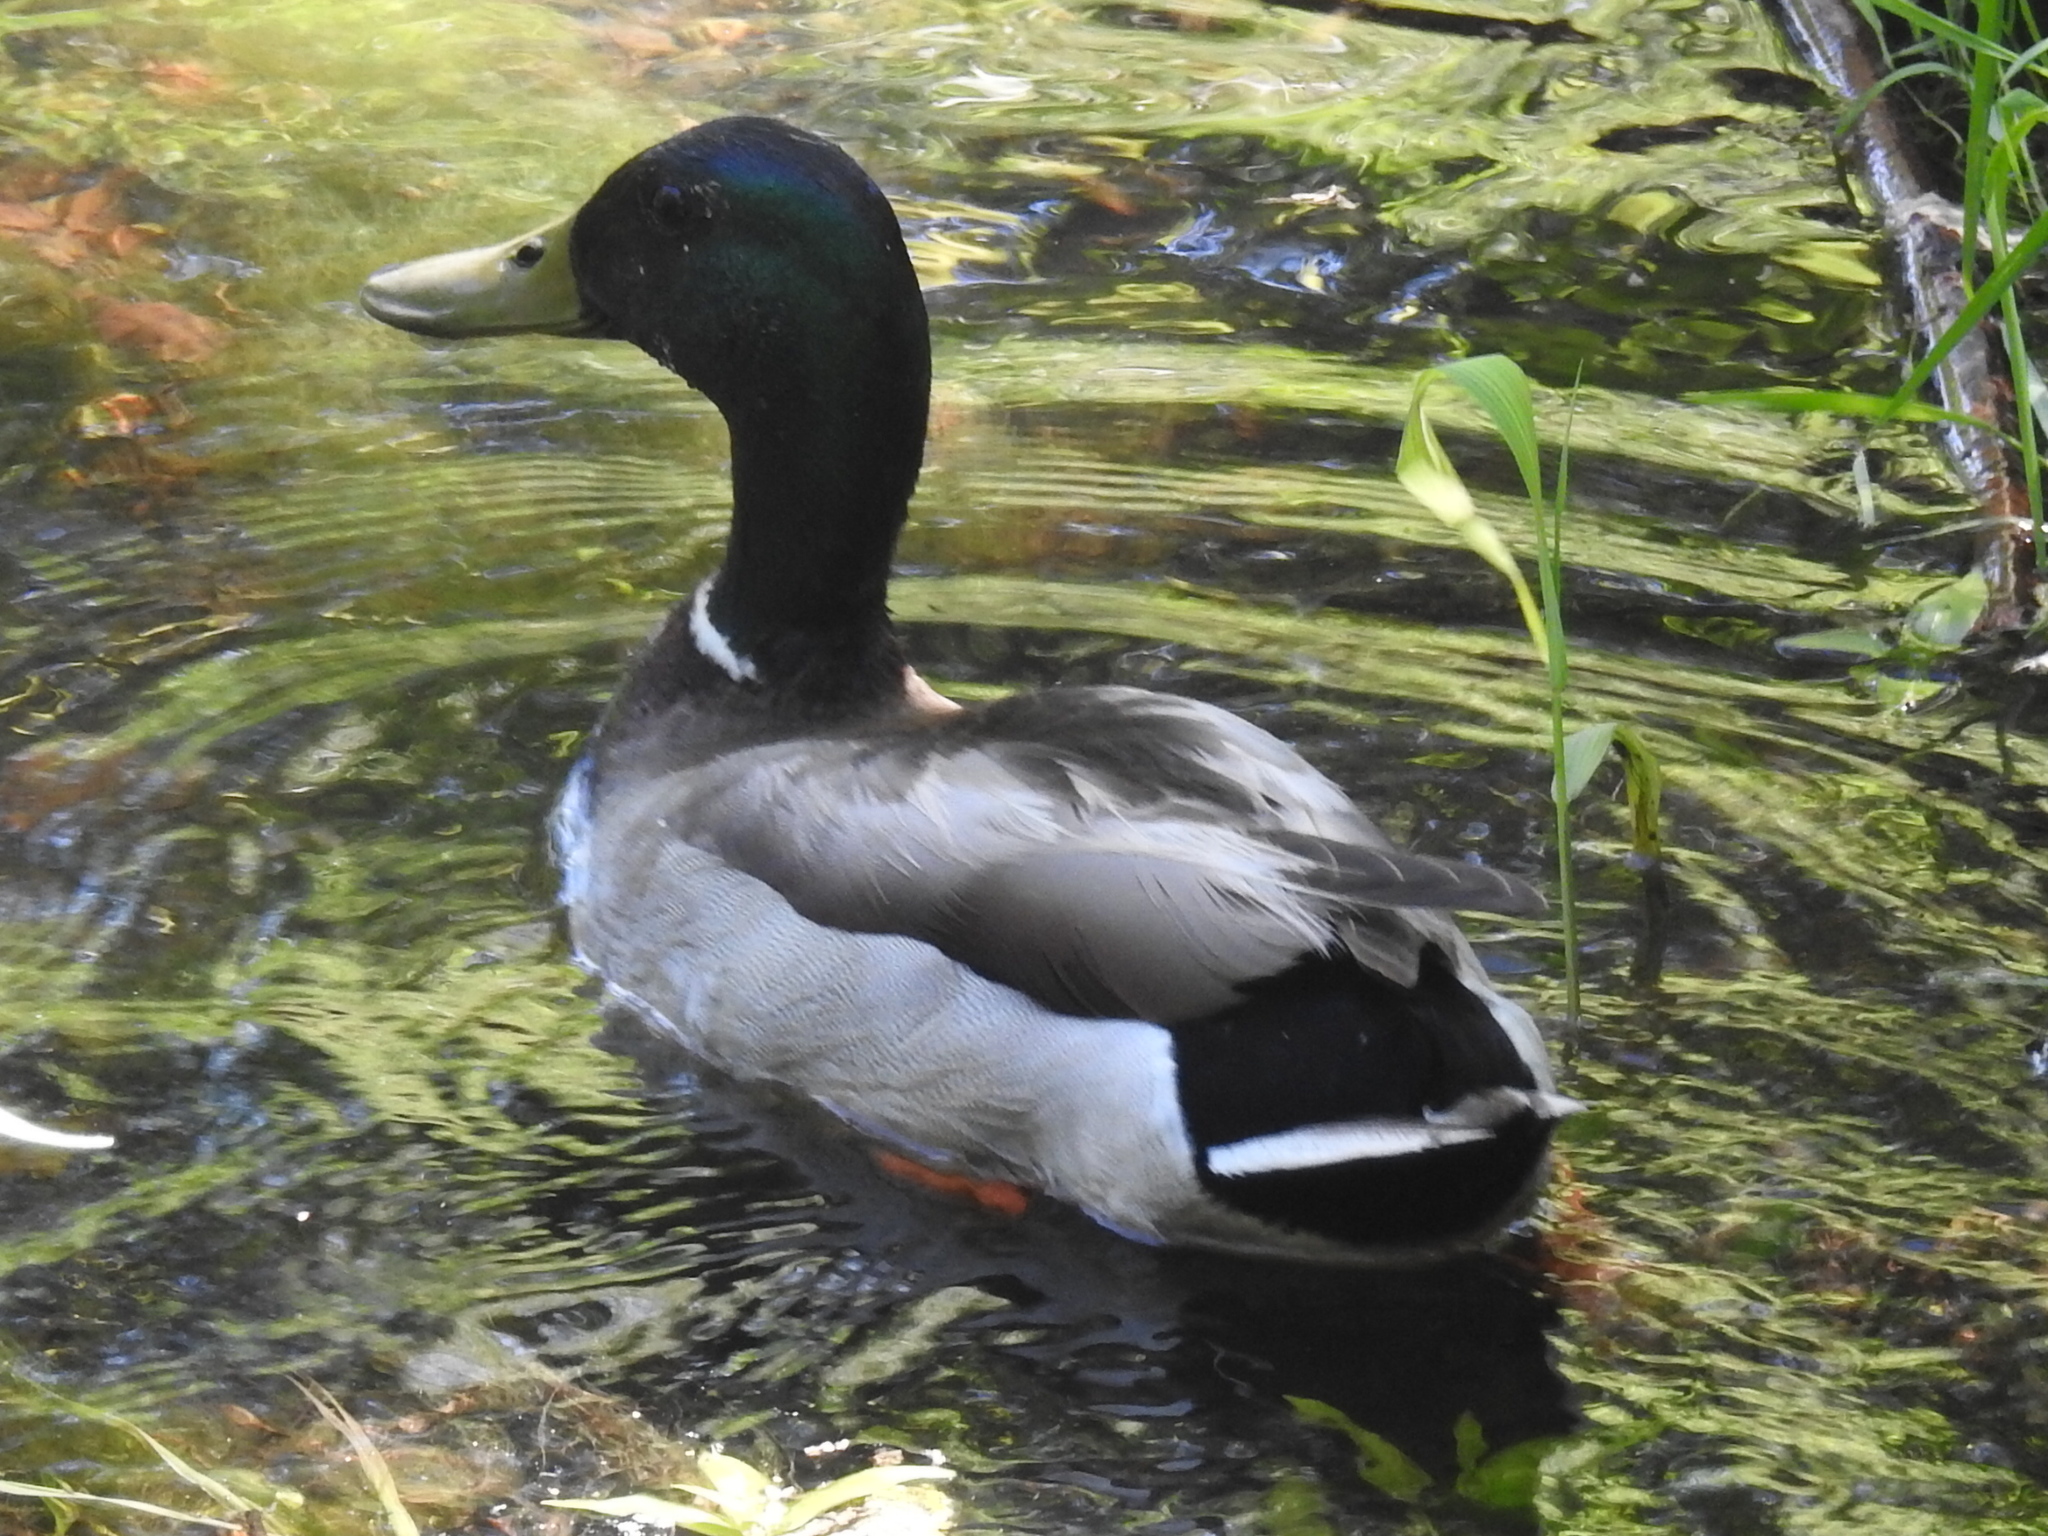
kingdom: Animalia
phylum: Chordata
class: Aves
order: Anseriformes
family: Anatidae
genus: Anas
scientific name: Anas platyrhynchos
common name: Mallard
